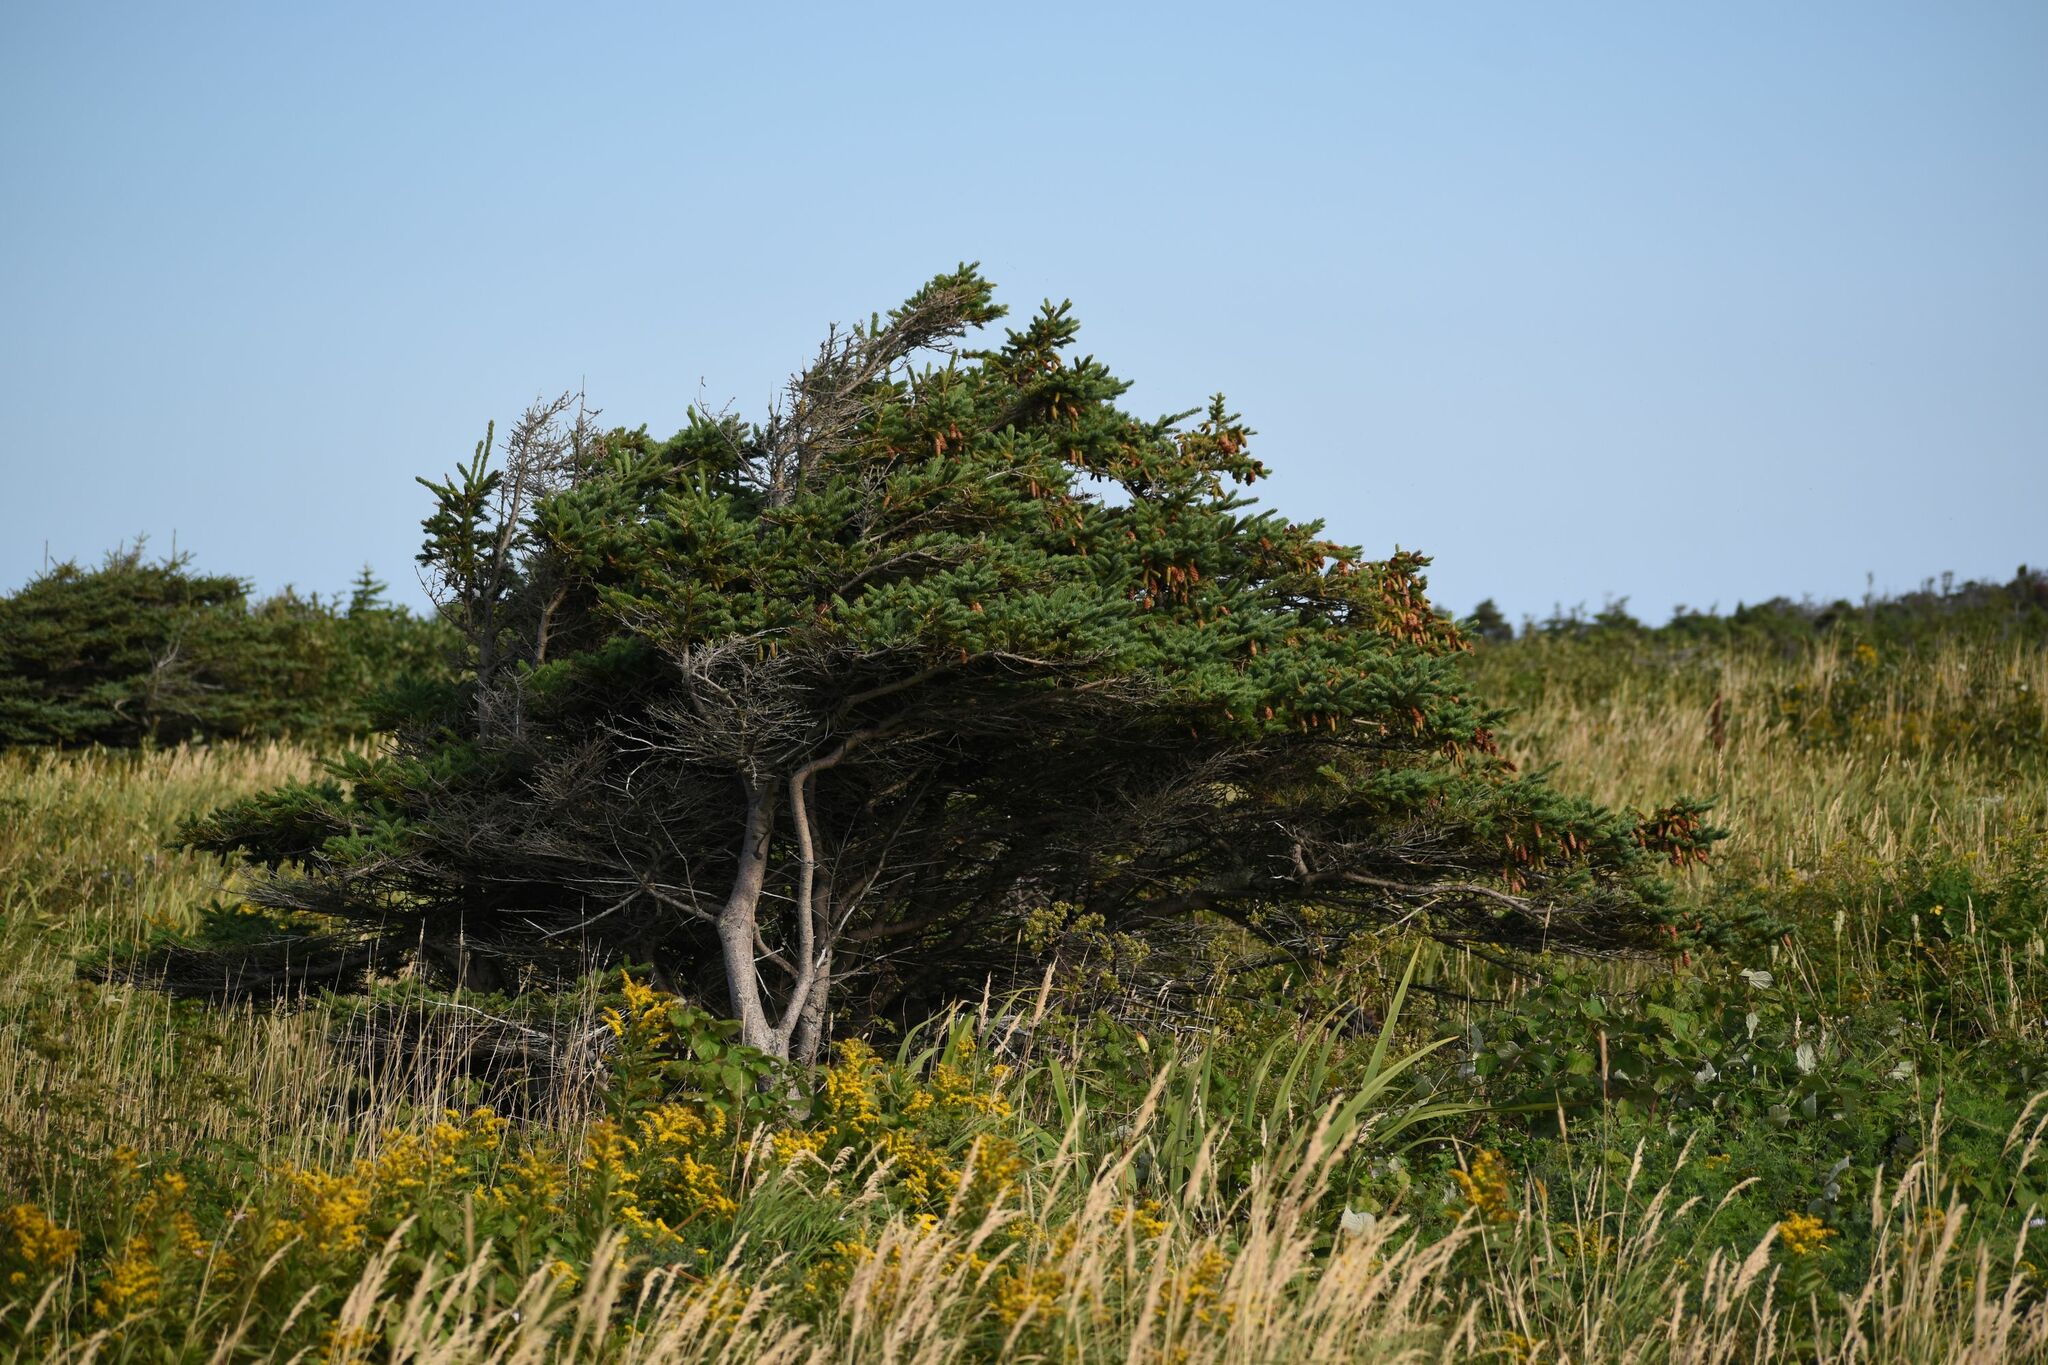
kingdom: Plantae
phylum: Tracheophyta
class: Pinopsida
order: Pinales
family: Pinaceae
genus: Picea
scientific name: Picea glauca
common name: White spruce
